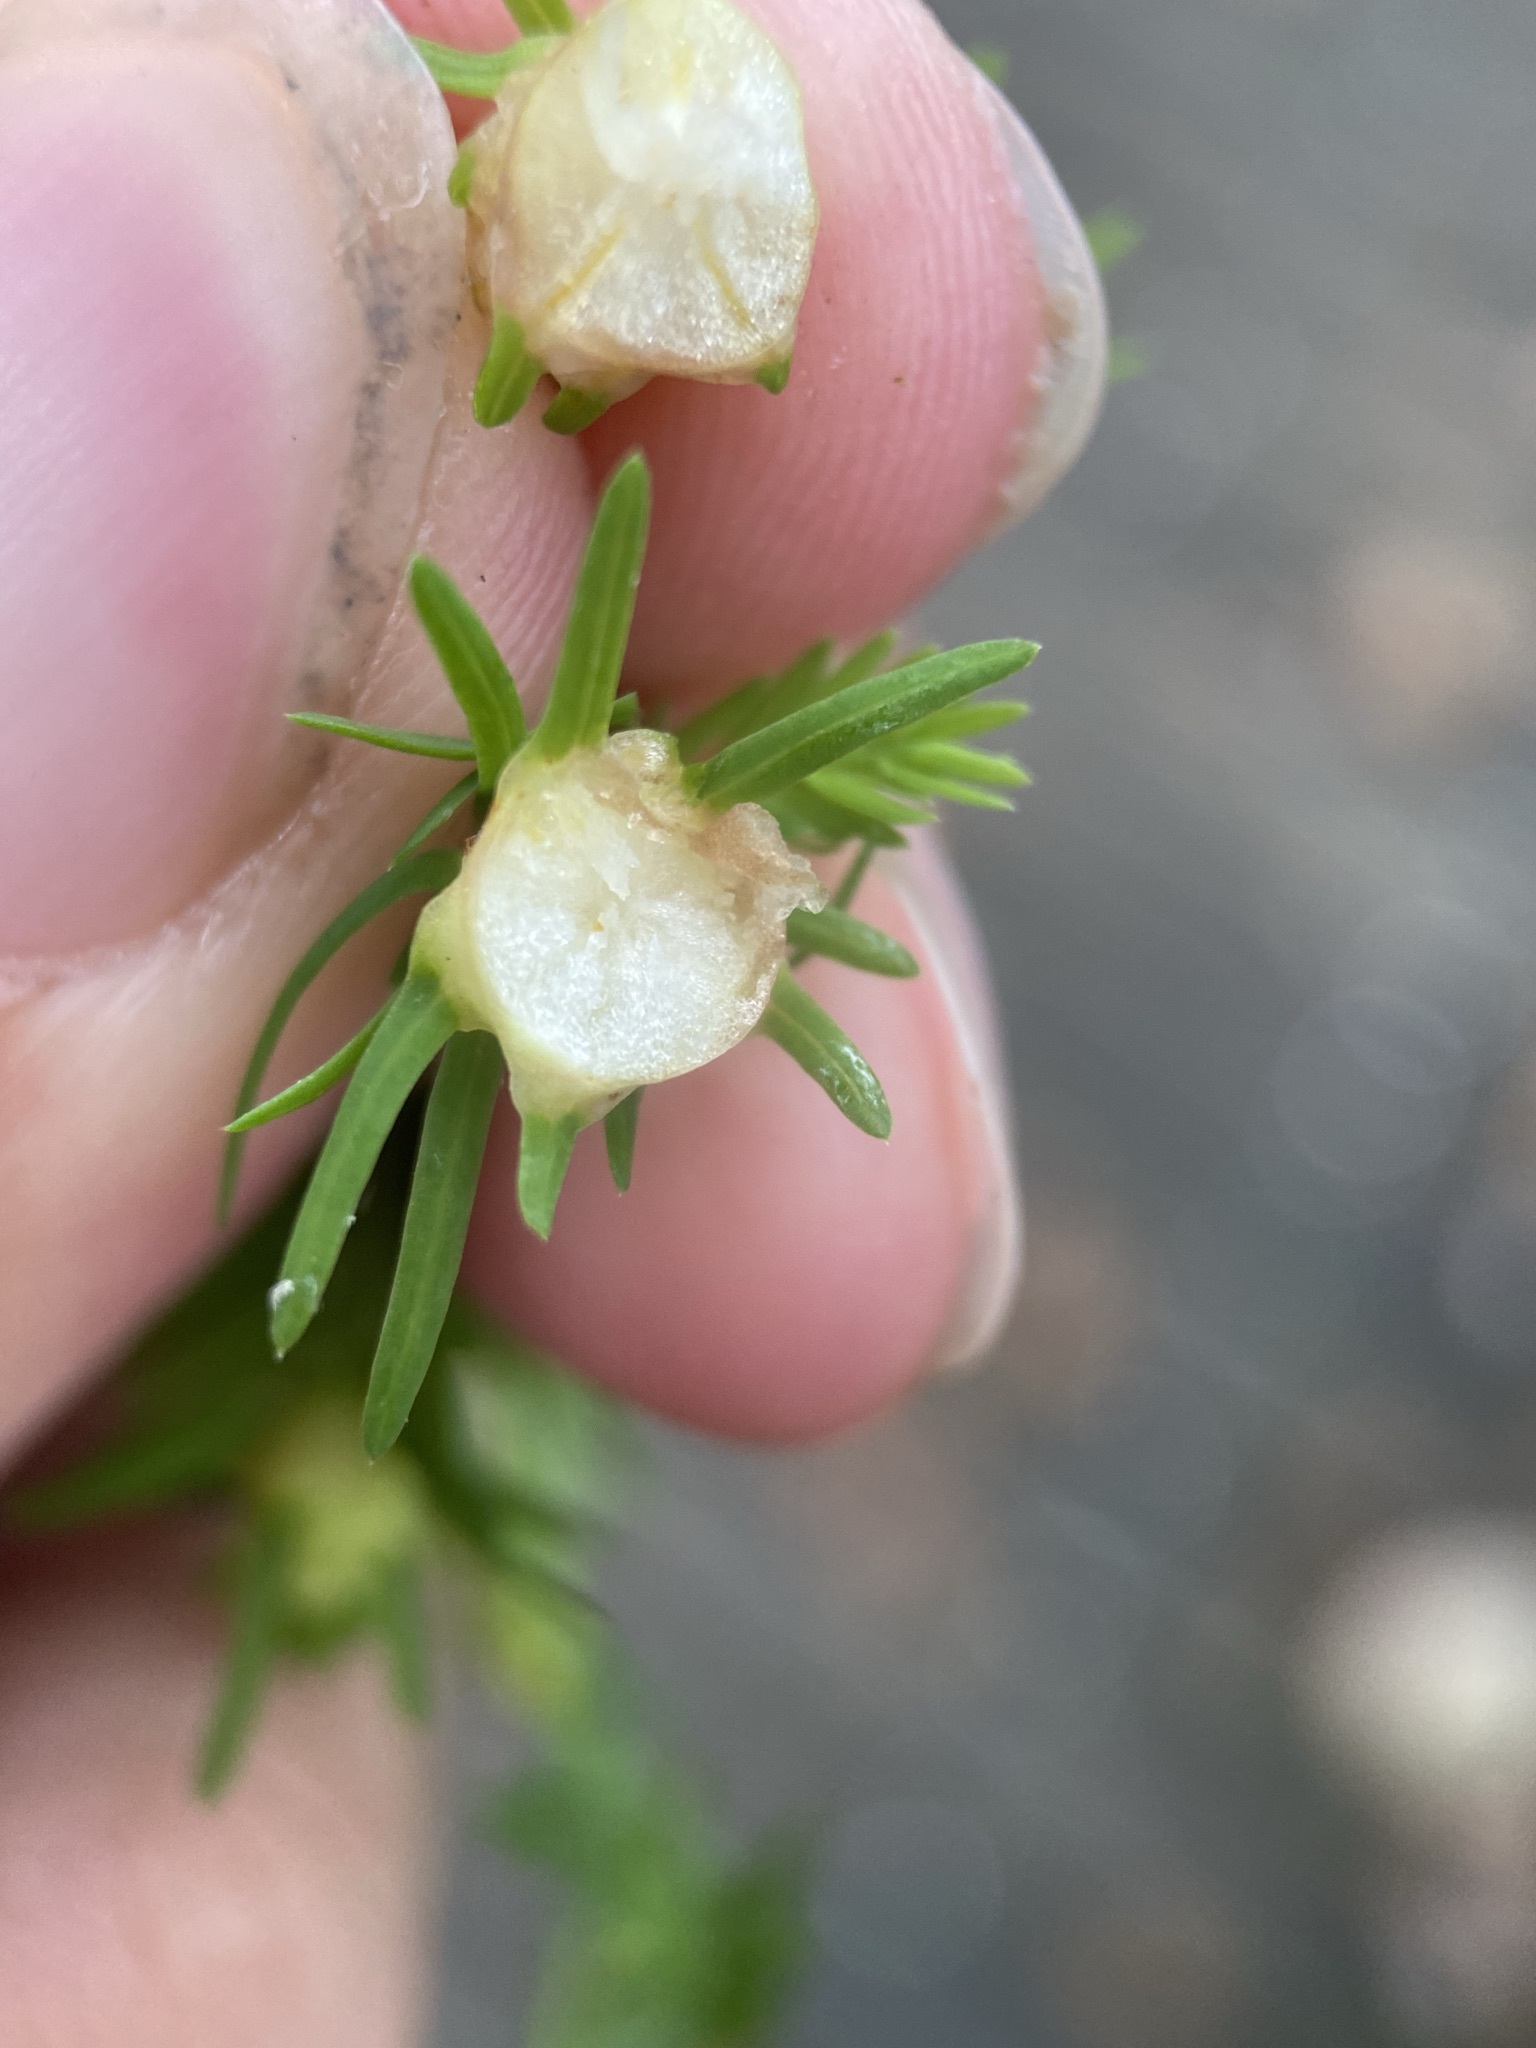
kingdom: Animalia
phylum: Arthropoda
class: Insecta
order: Diptera
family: Cecidomyiidae
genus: Taxodiomyia
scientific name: Taxodiomyia cupressiananassa
